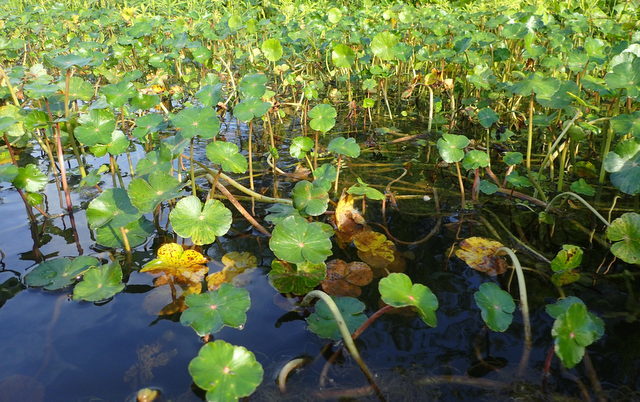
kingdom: Plantae
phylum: Tracheophyta
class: Magnoliopsida
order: Apiales
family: Araliaceae
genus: Hydrocotyle
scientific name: Hydrocotyle ranunculoides
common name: Floating pennywort
